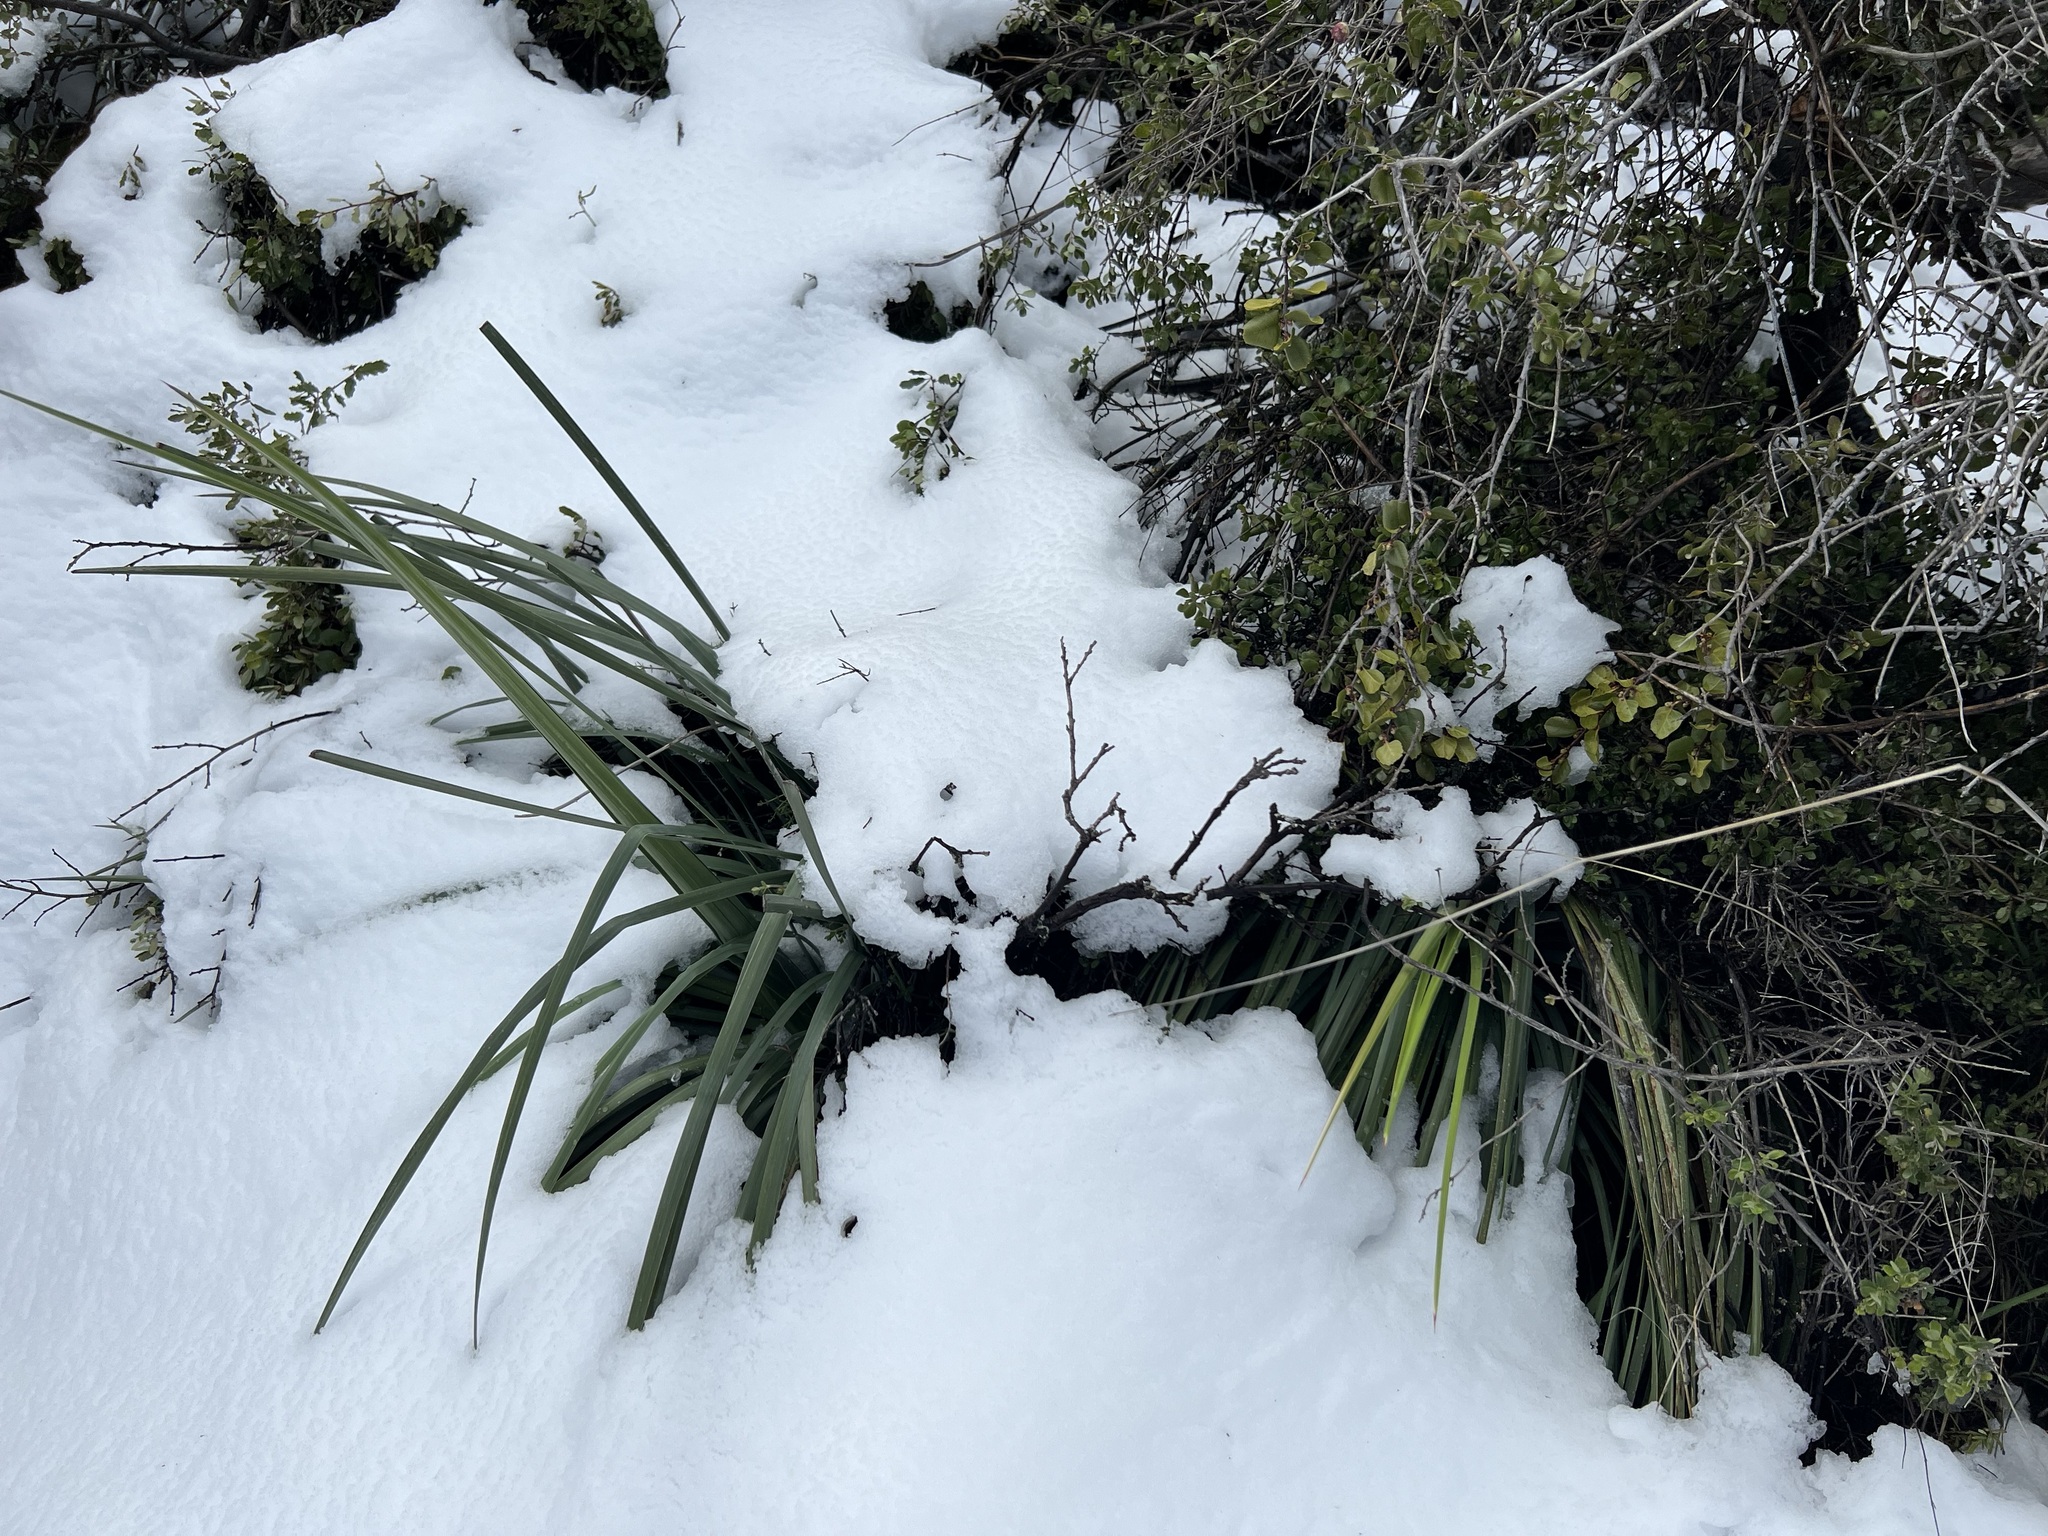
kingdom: Plantae
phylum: Tracheophyta
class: Liliopsida
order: Asparagales
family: Asparagaceae
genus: Hesperoyucca
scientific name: Hesperoyucca whipplei
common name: Our lord's-candle
